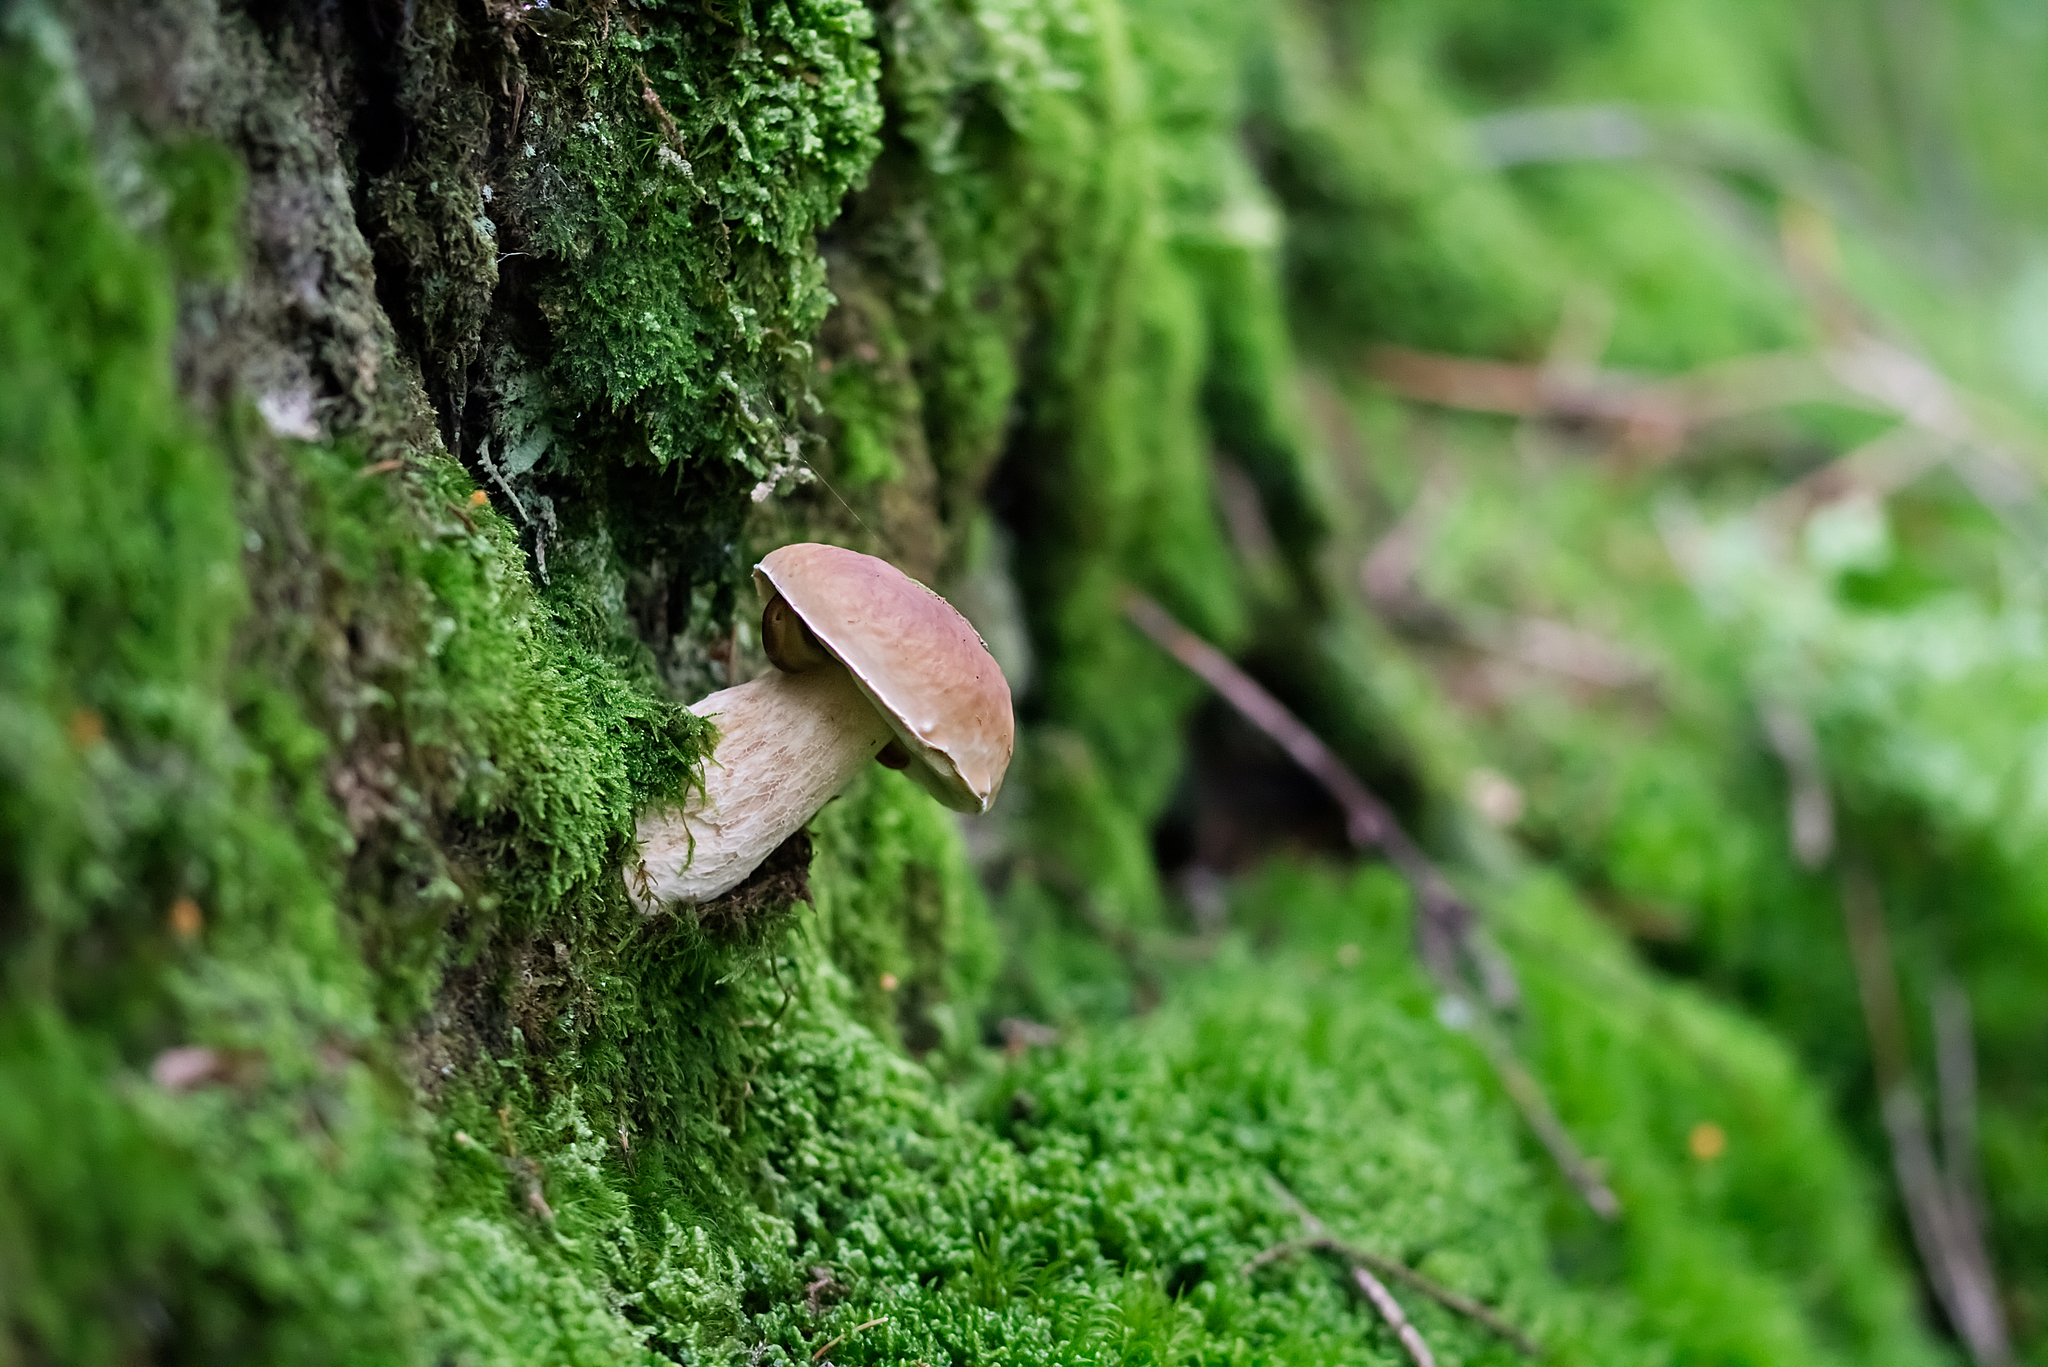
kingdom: Fungi
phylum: Basidiomycota
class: Agaricomycetes
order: Boletales
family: Boletaceae
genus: Boletus
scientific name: Boletus edulis
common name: Cep
